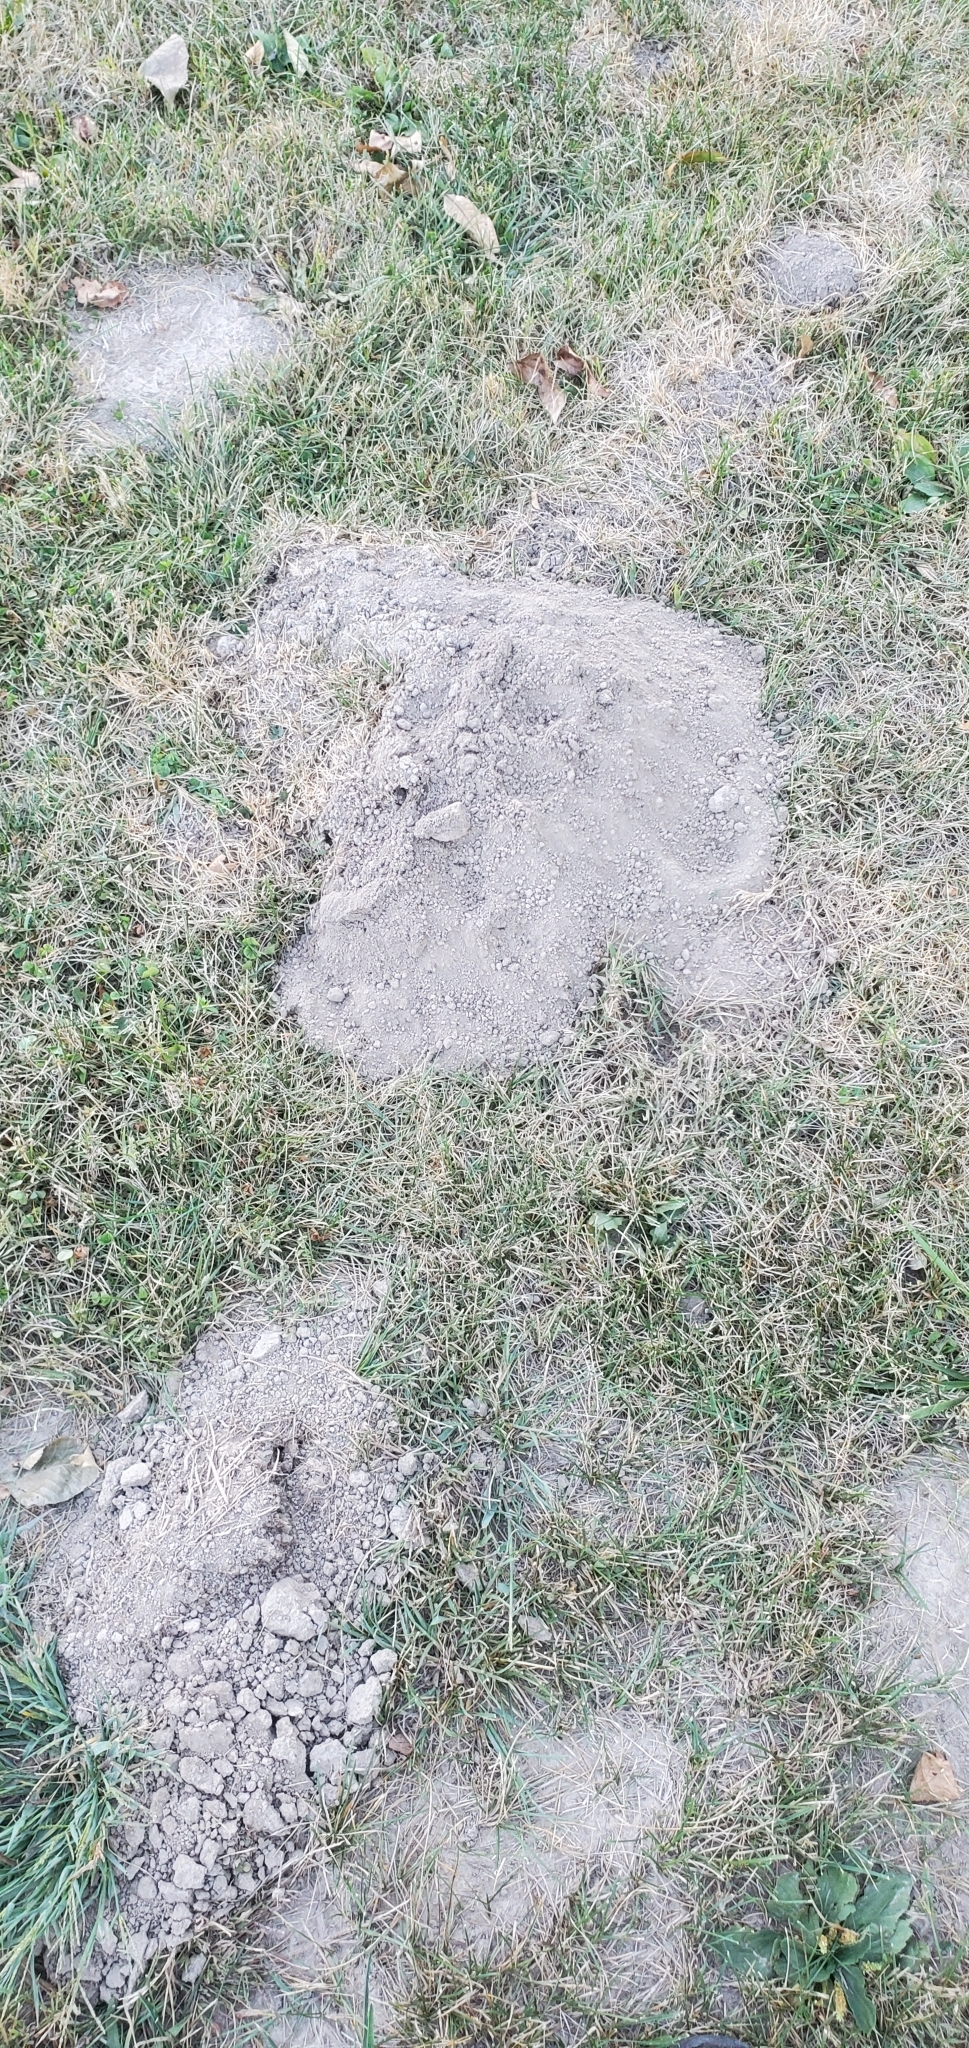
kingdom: Animalia
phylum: Chordata
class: Mammalia
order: Rodentia
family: Geomyidae
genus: Geomys
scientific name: Geomys bursarius
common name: Plains pocket gopher
